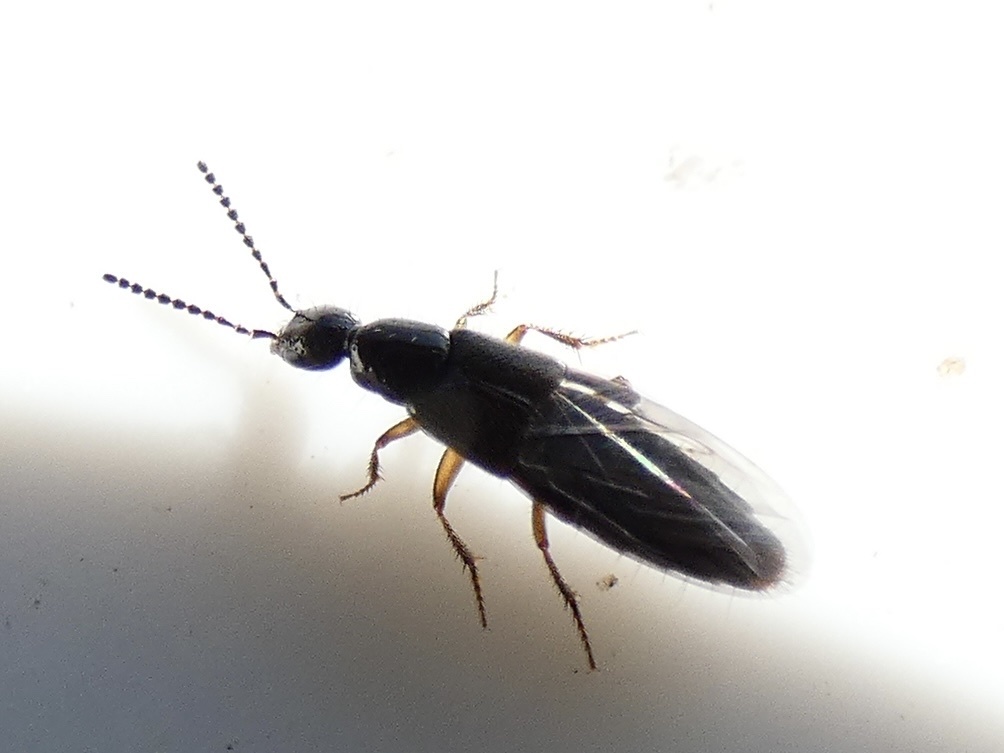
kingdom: Animalia
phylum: Arthropoda
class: Insecta
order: Coleoptera
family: Staphylinidae
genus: Bisnius
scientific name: Bisnius fimetarius
